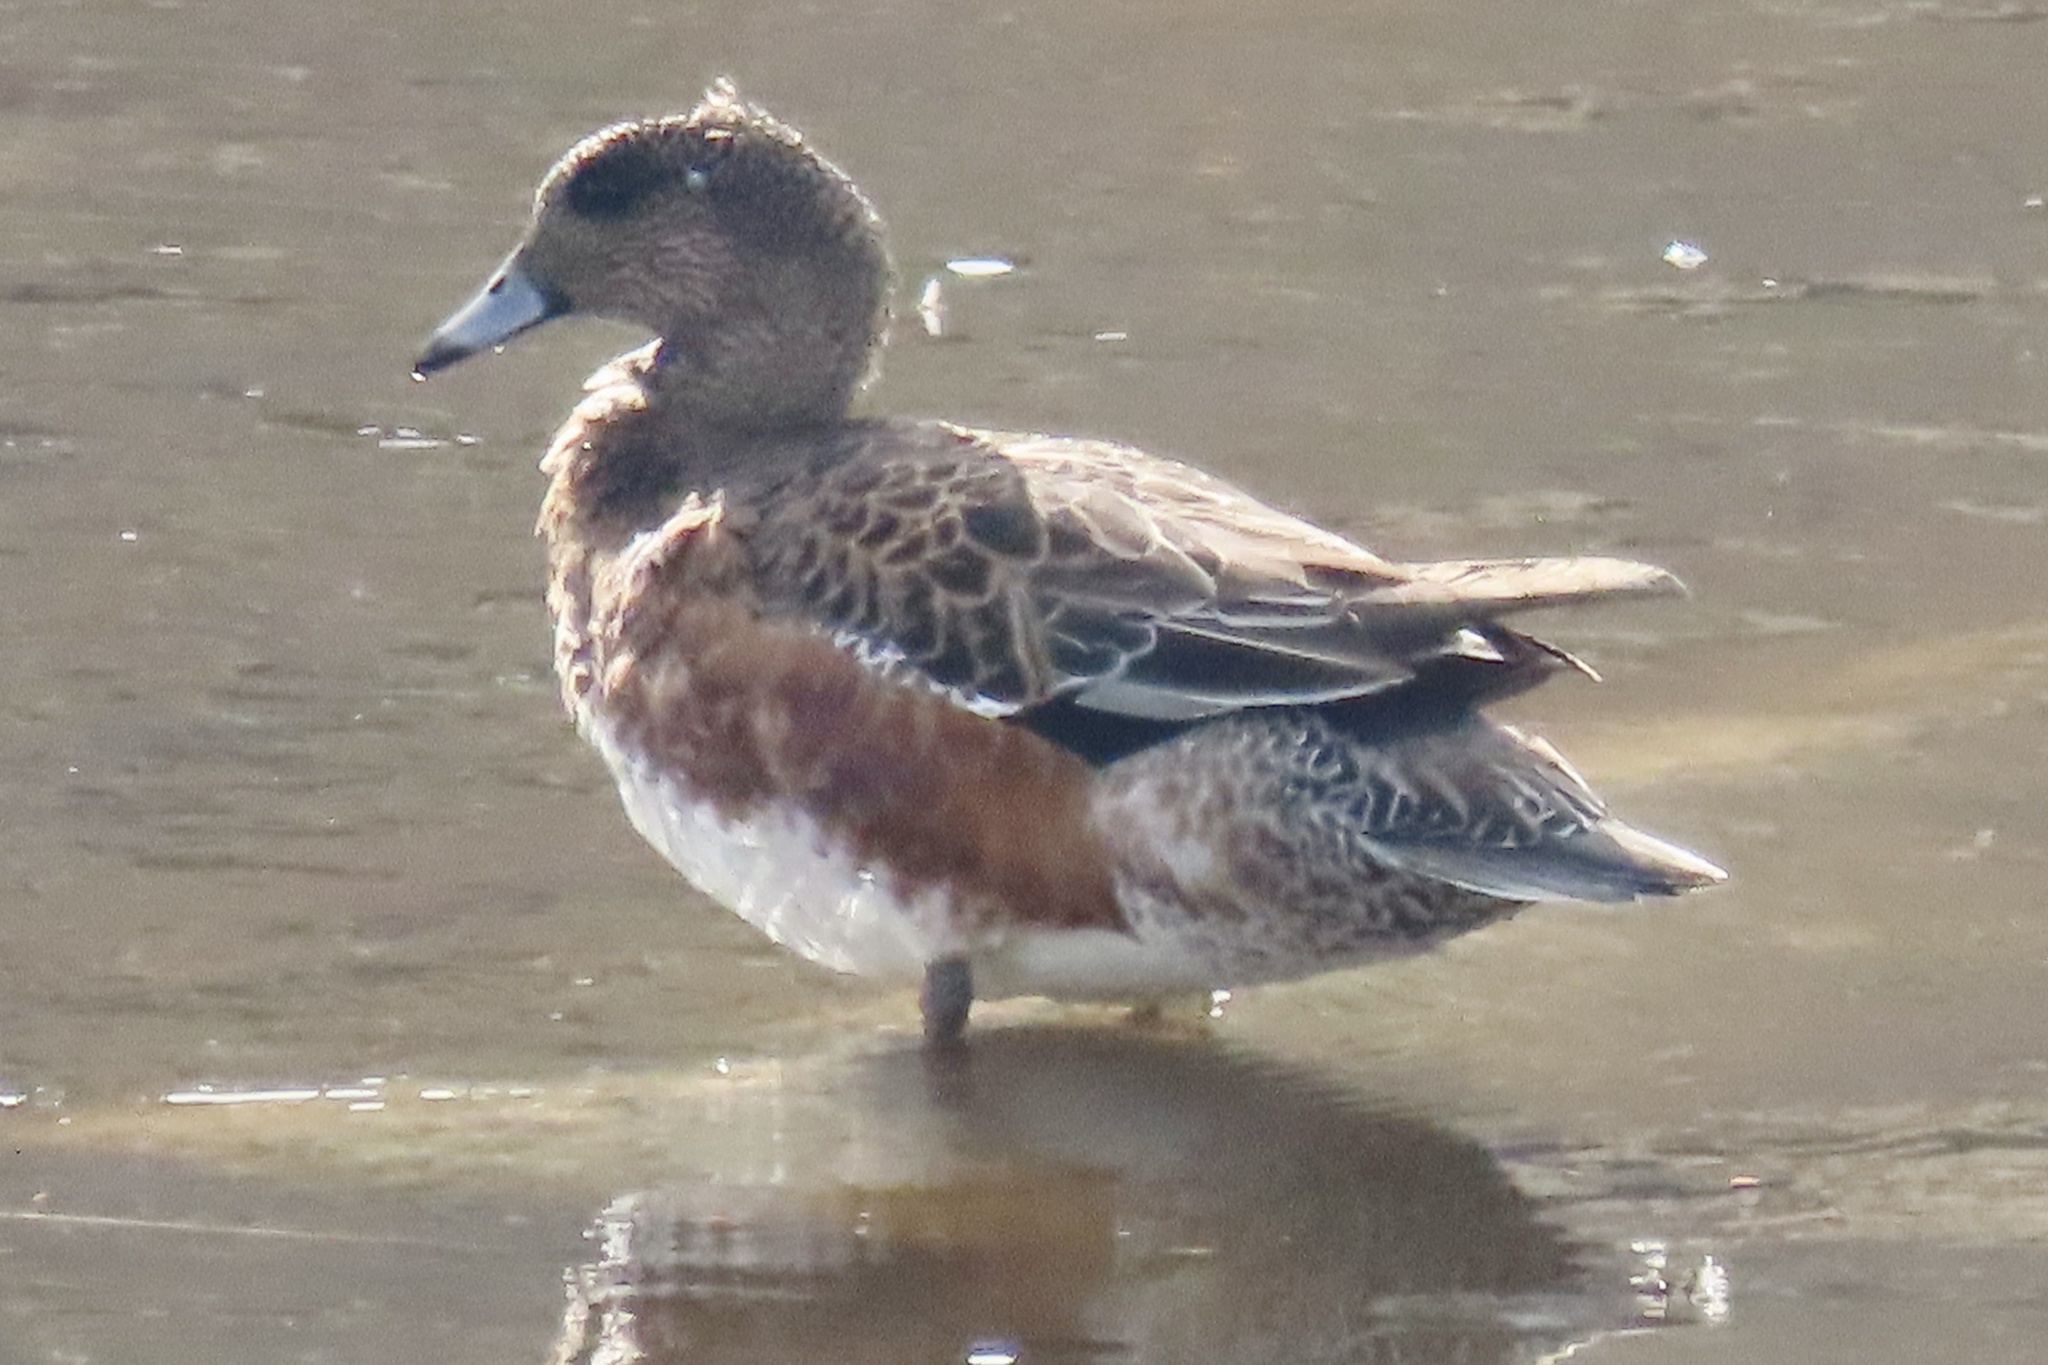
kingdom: Animalia
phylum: Chordata
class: Aves
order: Anseriformes
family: Anatidae
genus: Mareca
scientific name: Mareca americana
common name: American wigeon
